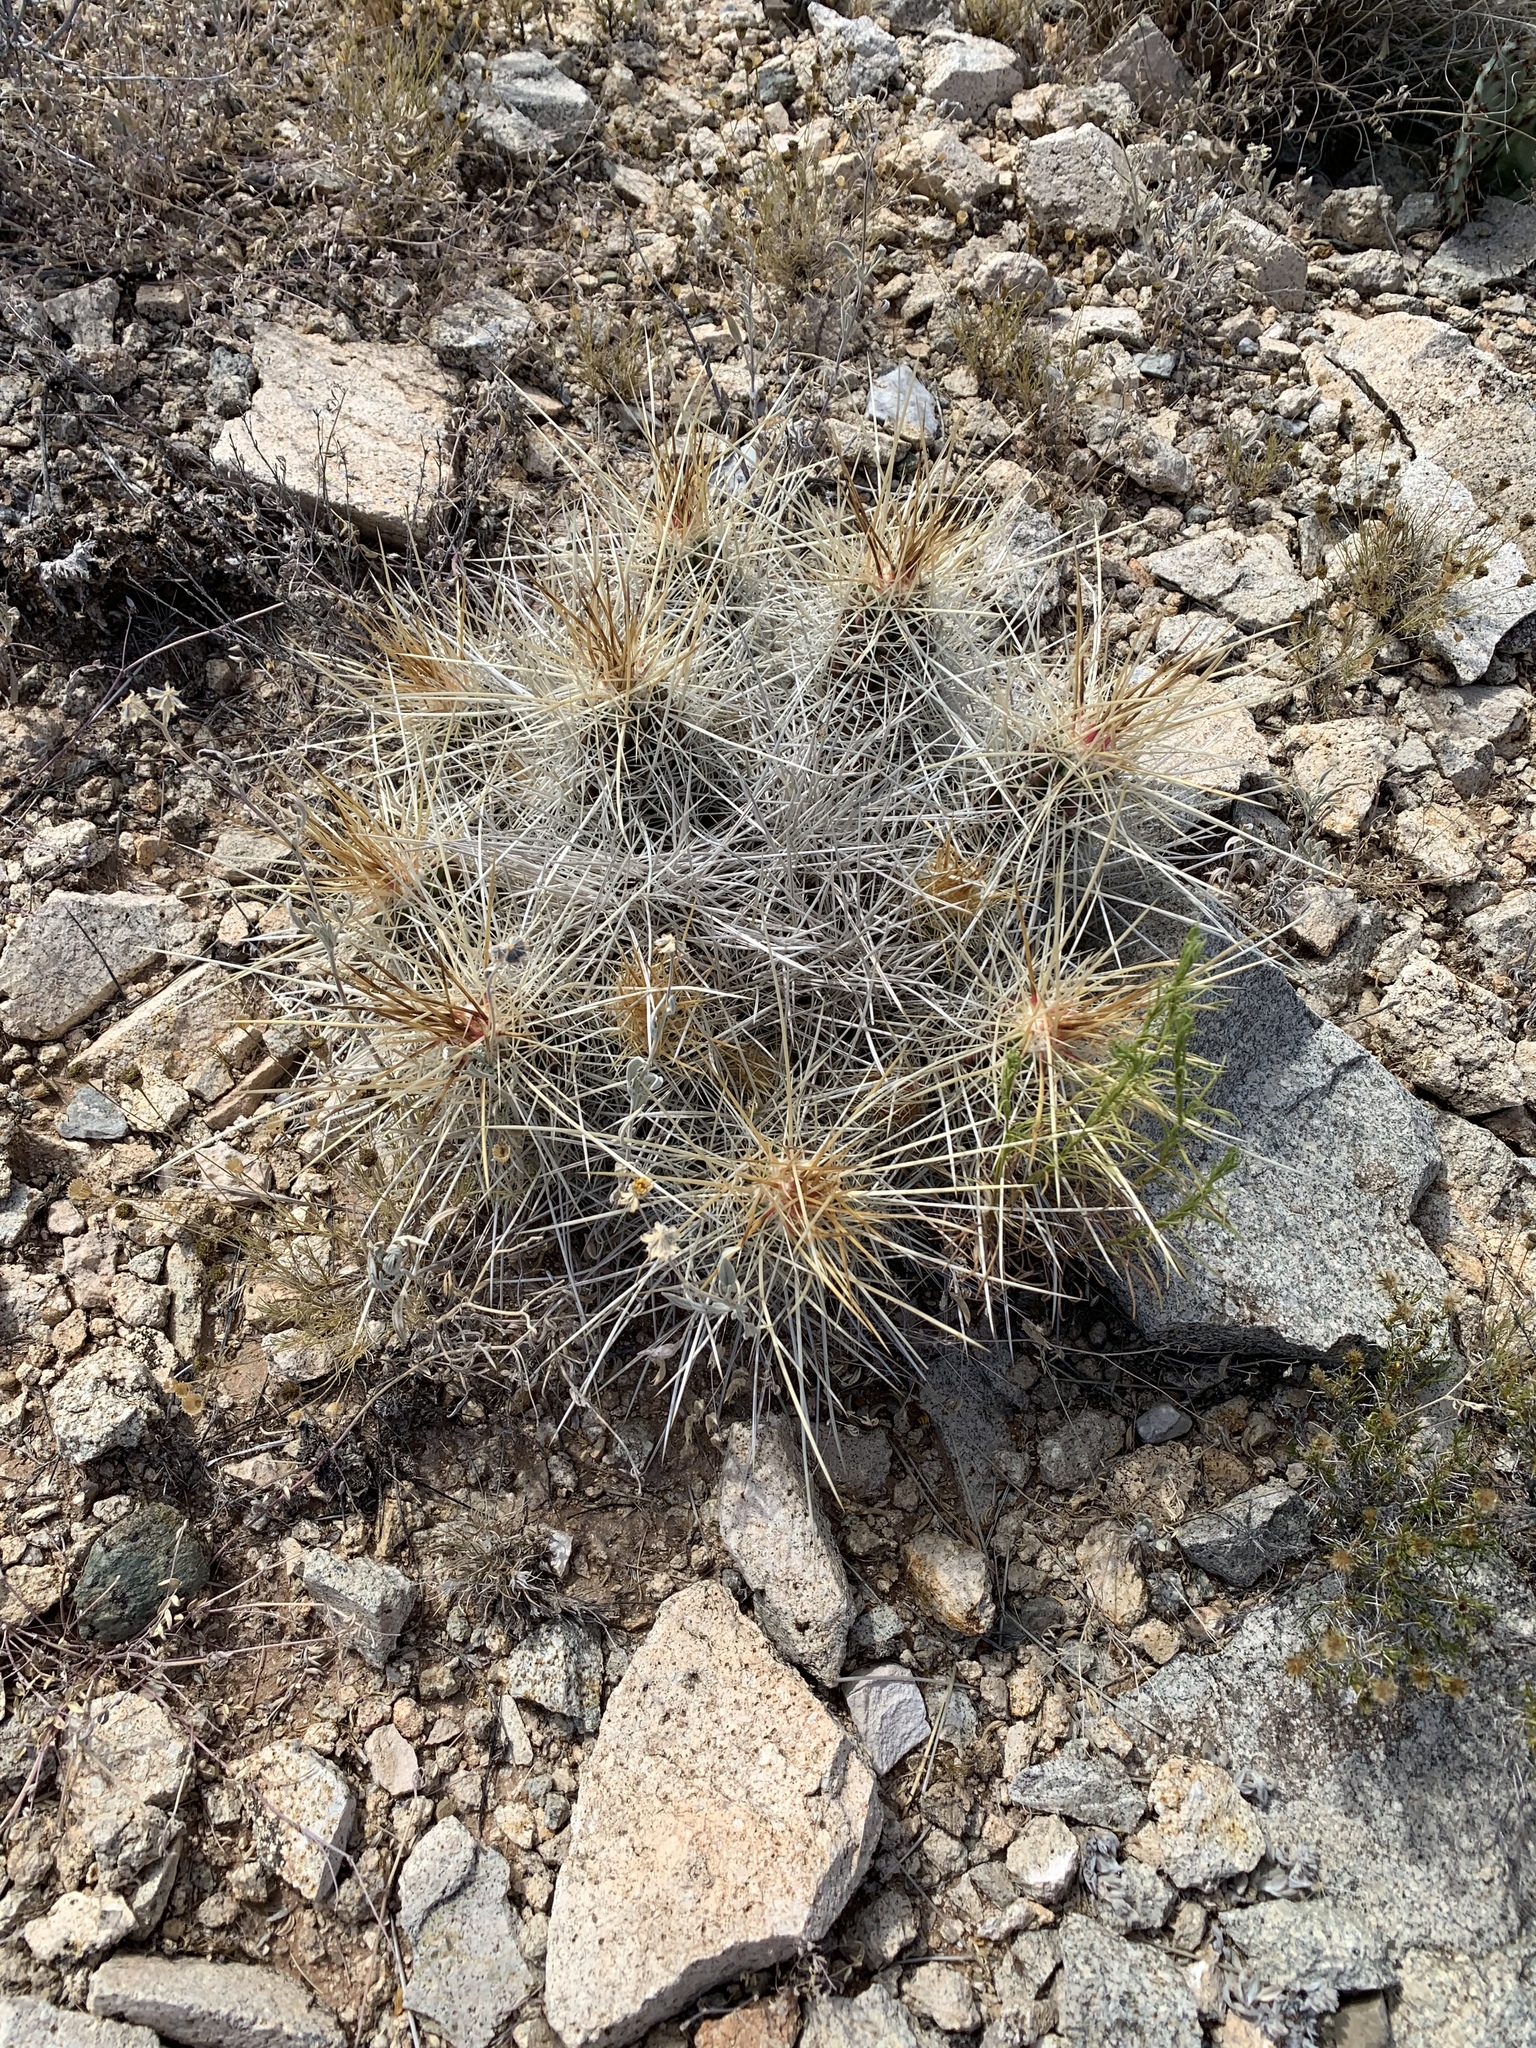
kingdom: Plantae
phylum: Tracheophyta
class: Magnoliopsida
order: Caryophyllales
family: Cactaceae
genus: Echinocereus
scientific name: Echinocereus stramineus
